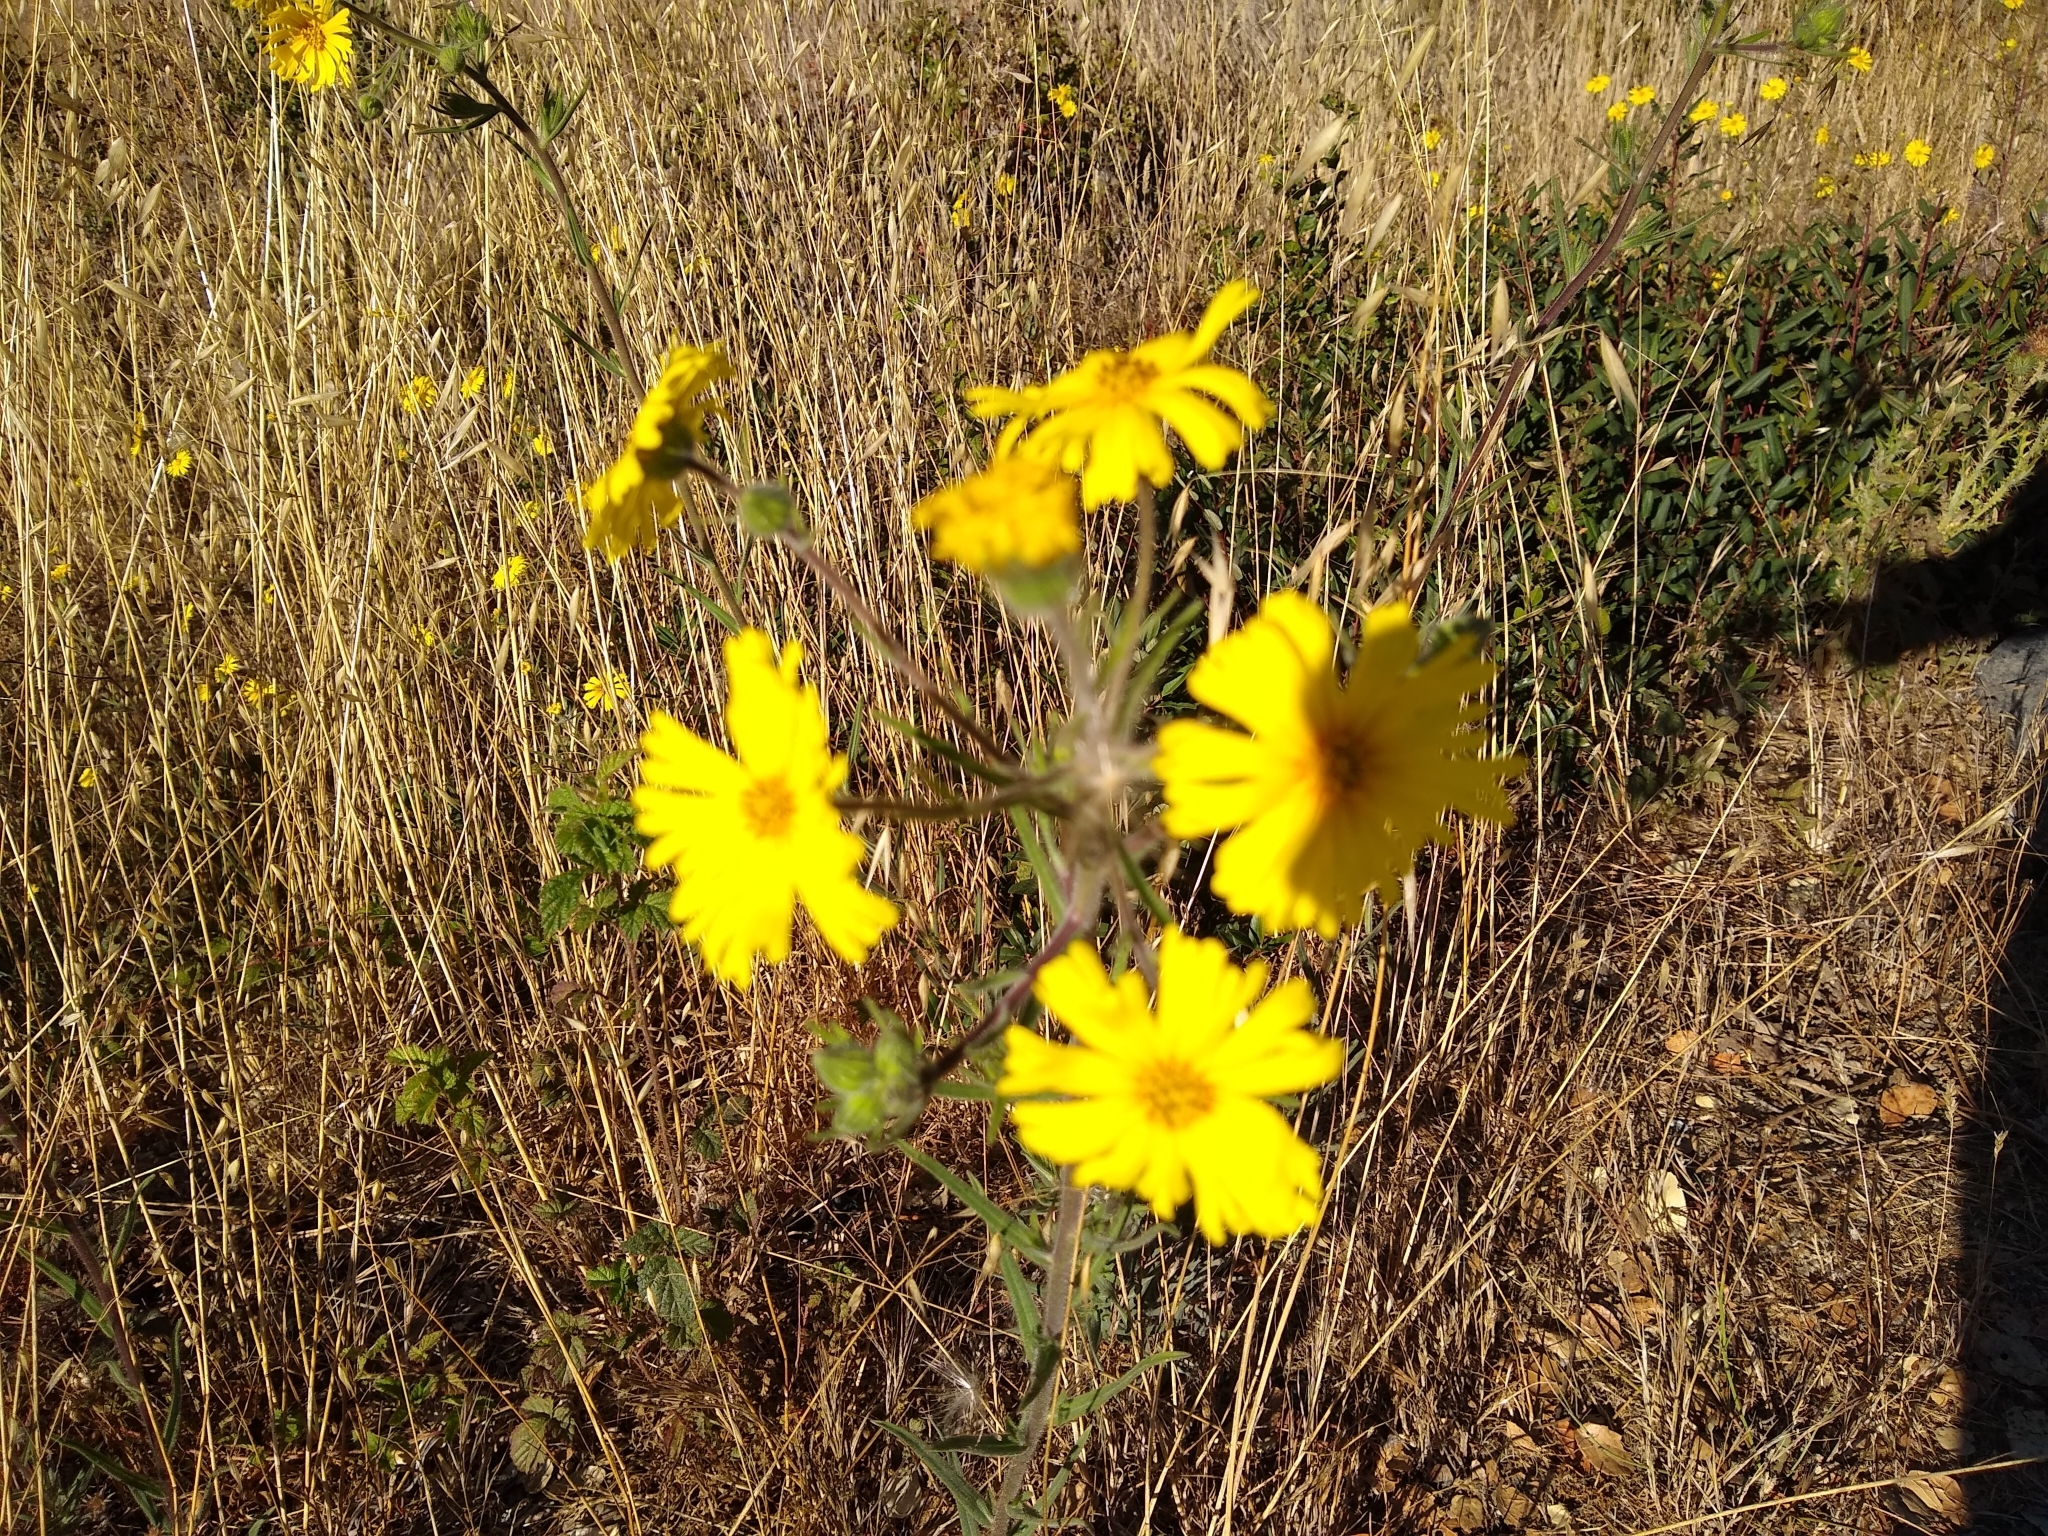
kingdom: Plantae
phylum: Tracheophyta
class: Magnoliopsida
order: Asterales
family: Asteraceae
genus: Madia
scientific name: Madia elegans
